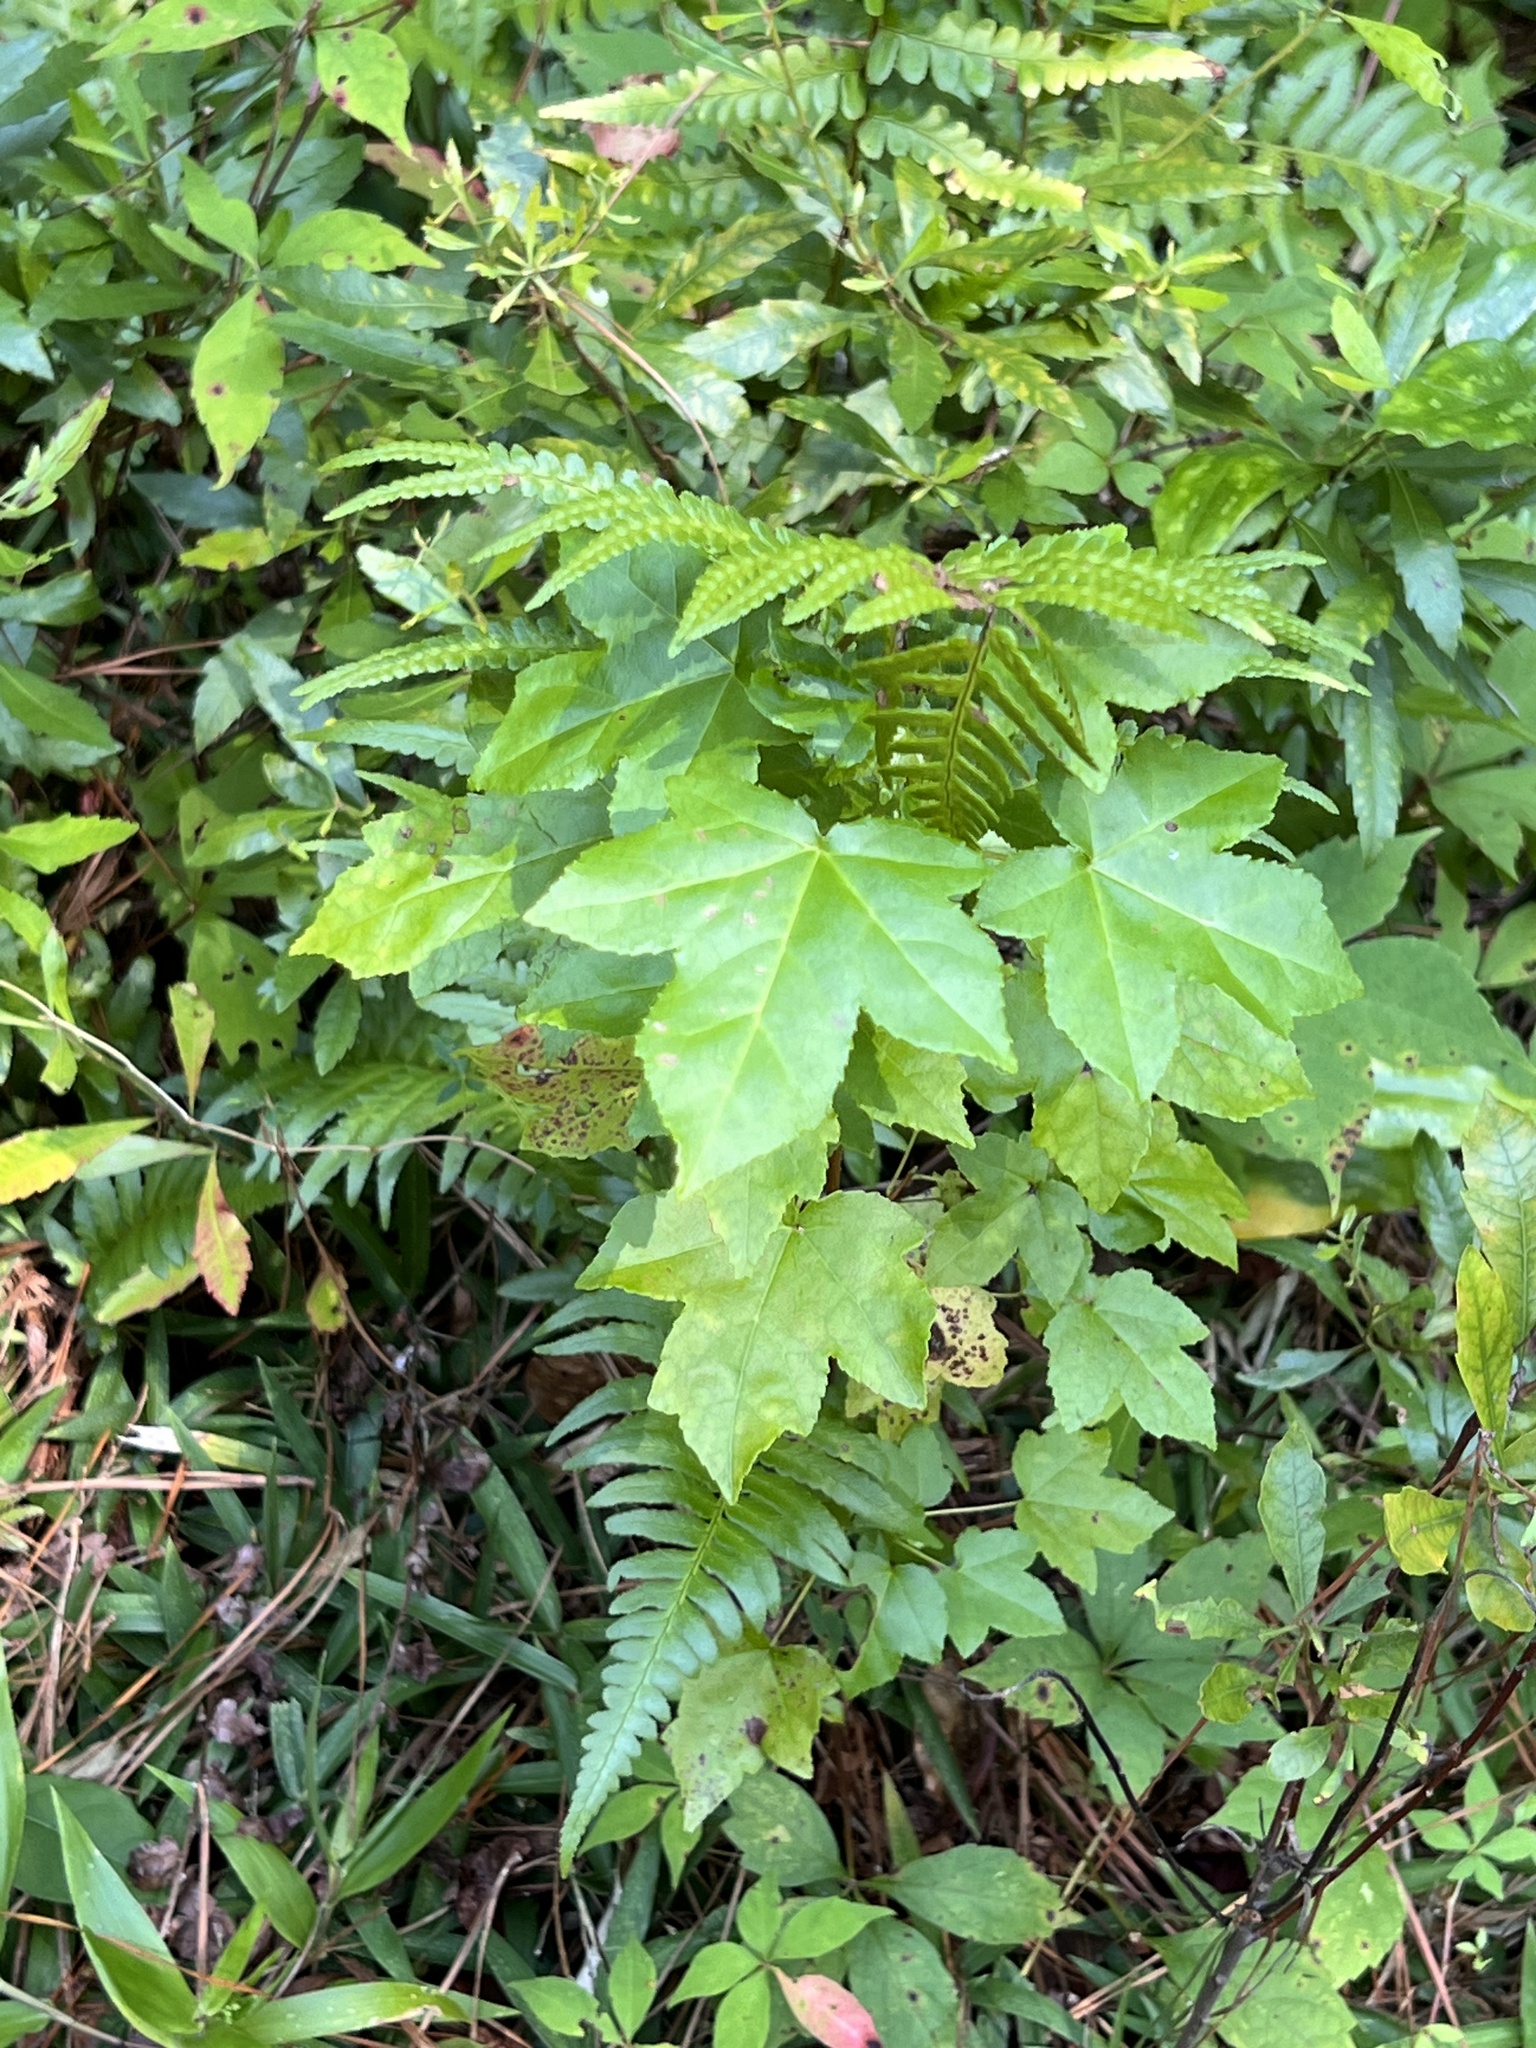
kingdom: Plantae
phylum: Tracheophyta
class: Magnoliopsida
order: Saxifragales
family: Altingiaceae
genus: Liquidambar
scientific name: Liquidambar styraciflua
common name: Sweet gum
